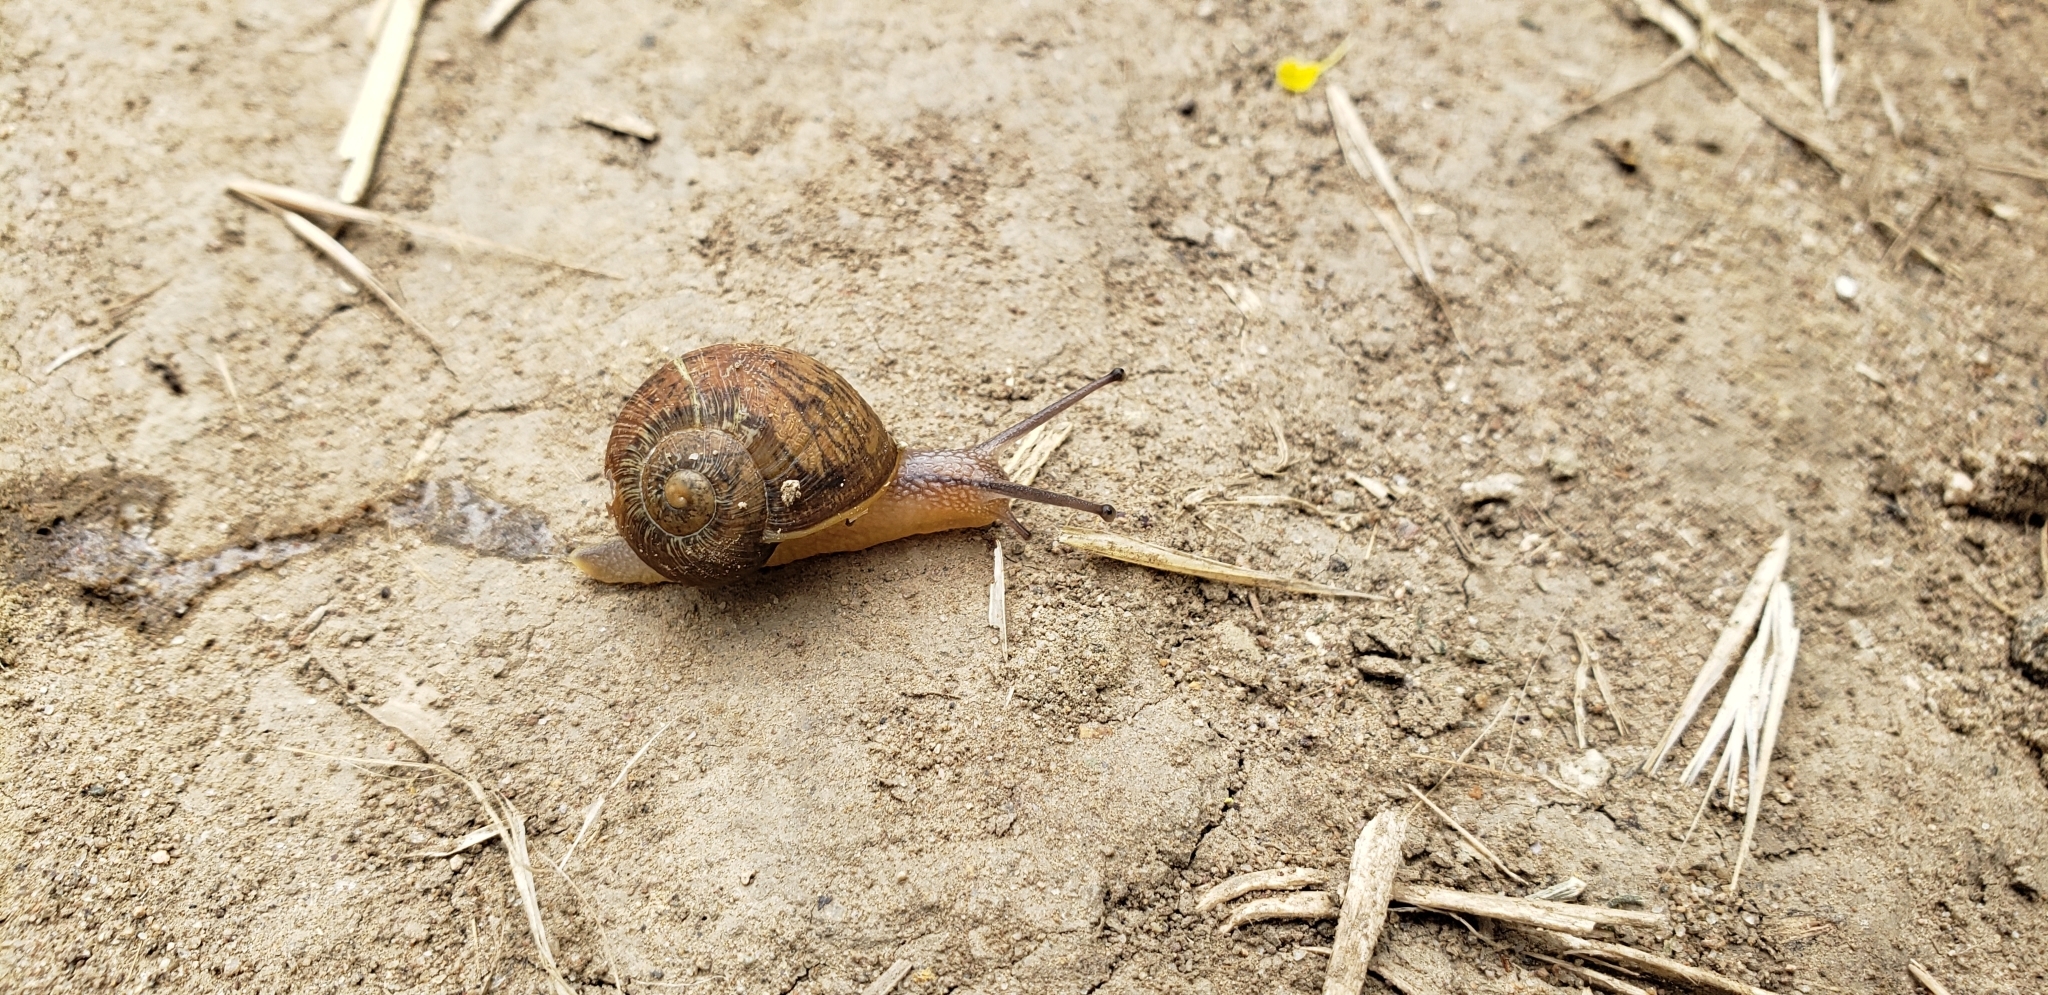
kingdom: Animalia
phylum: Mollusca
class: Gastropoda
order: Stylommatophora
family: Helicidae
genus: Cornu
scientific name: Cornu aspersum
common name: Brown garden snail
